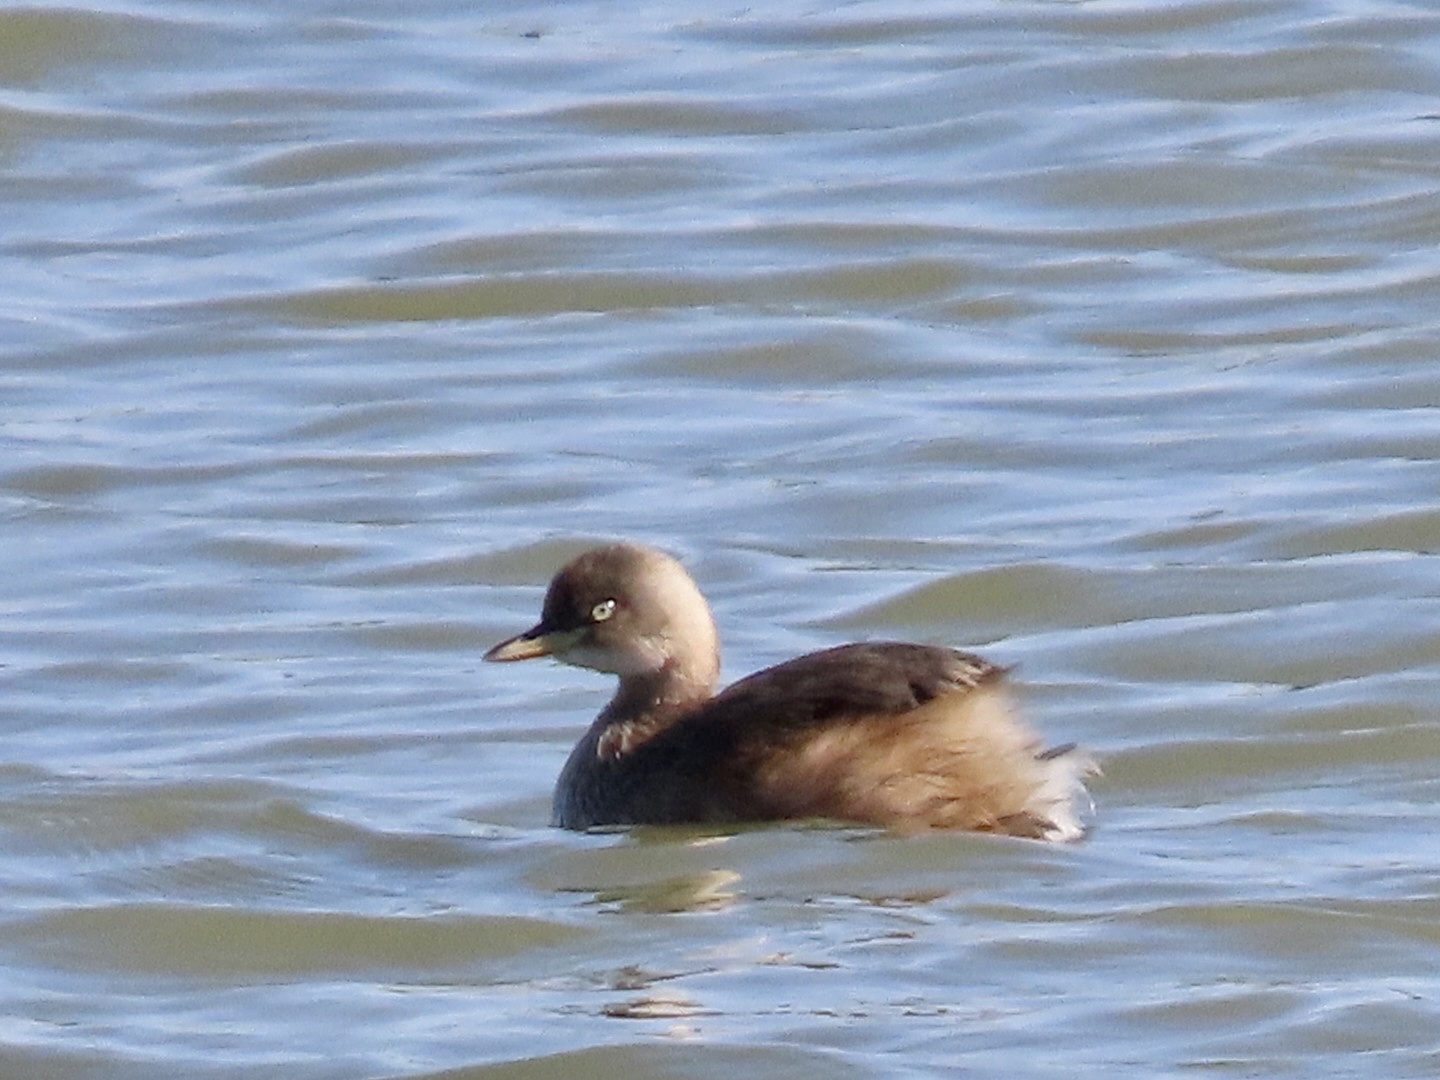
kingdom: Animalia
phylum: Chordata
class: Aves
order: Podicipediformes
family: Podicipedidae
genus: Tachybaptus
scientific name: Tachybaptus ruficollis
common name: Little grebe
